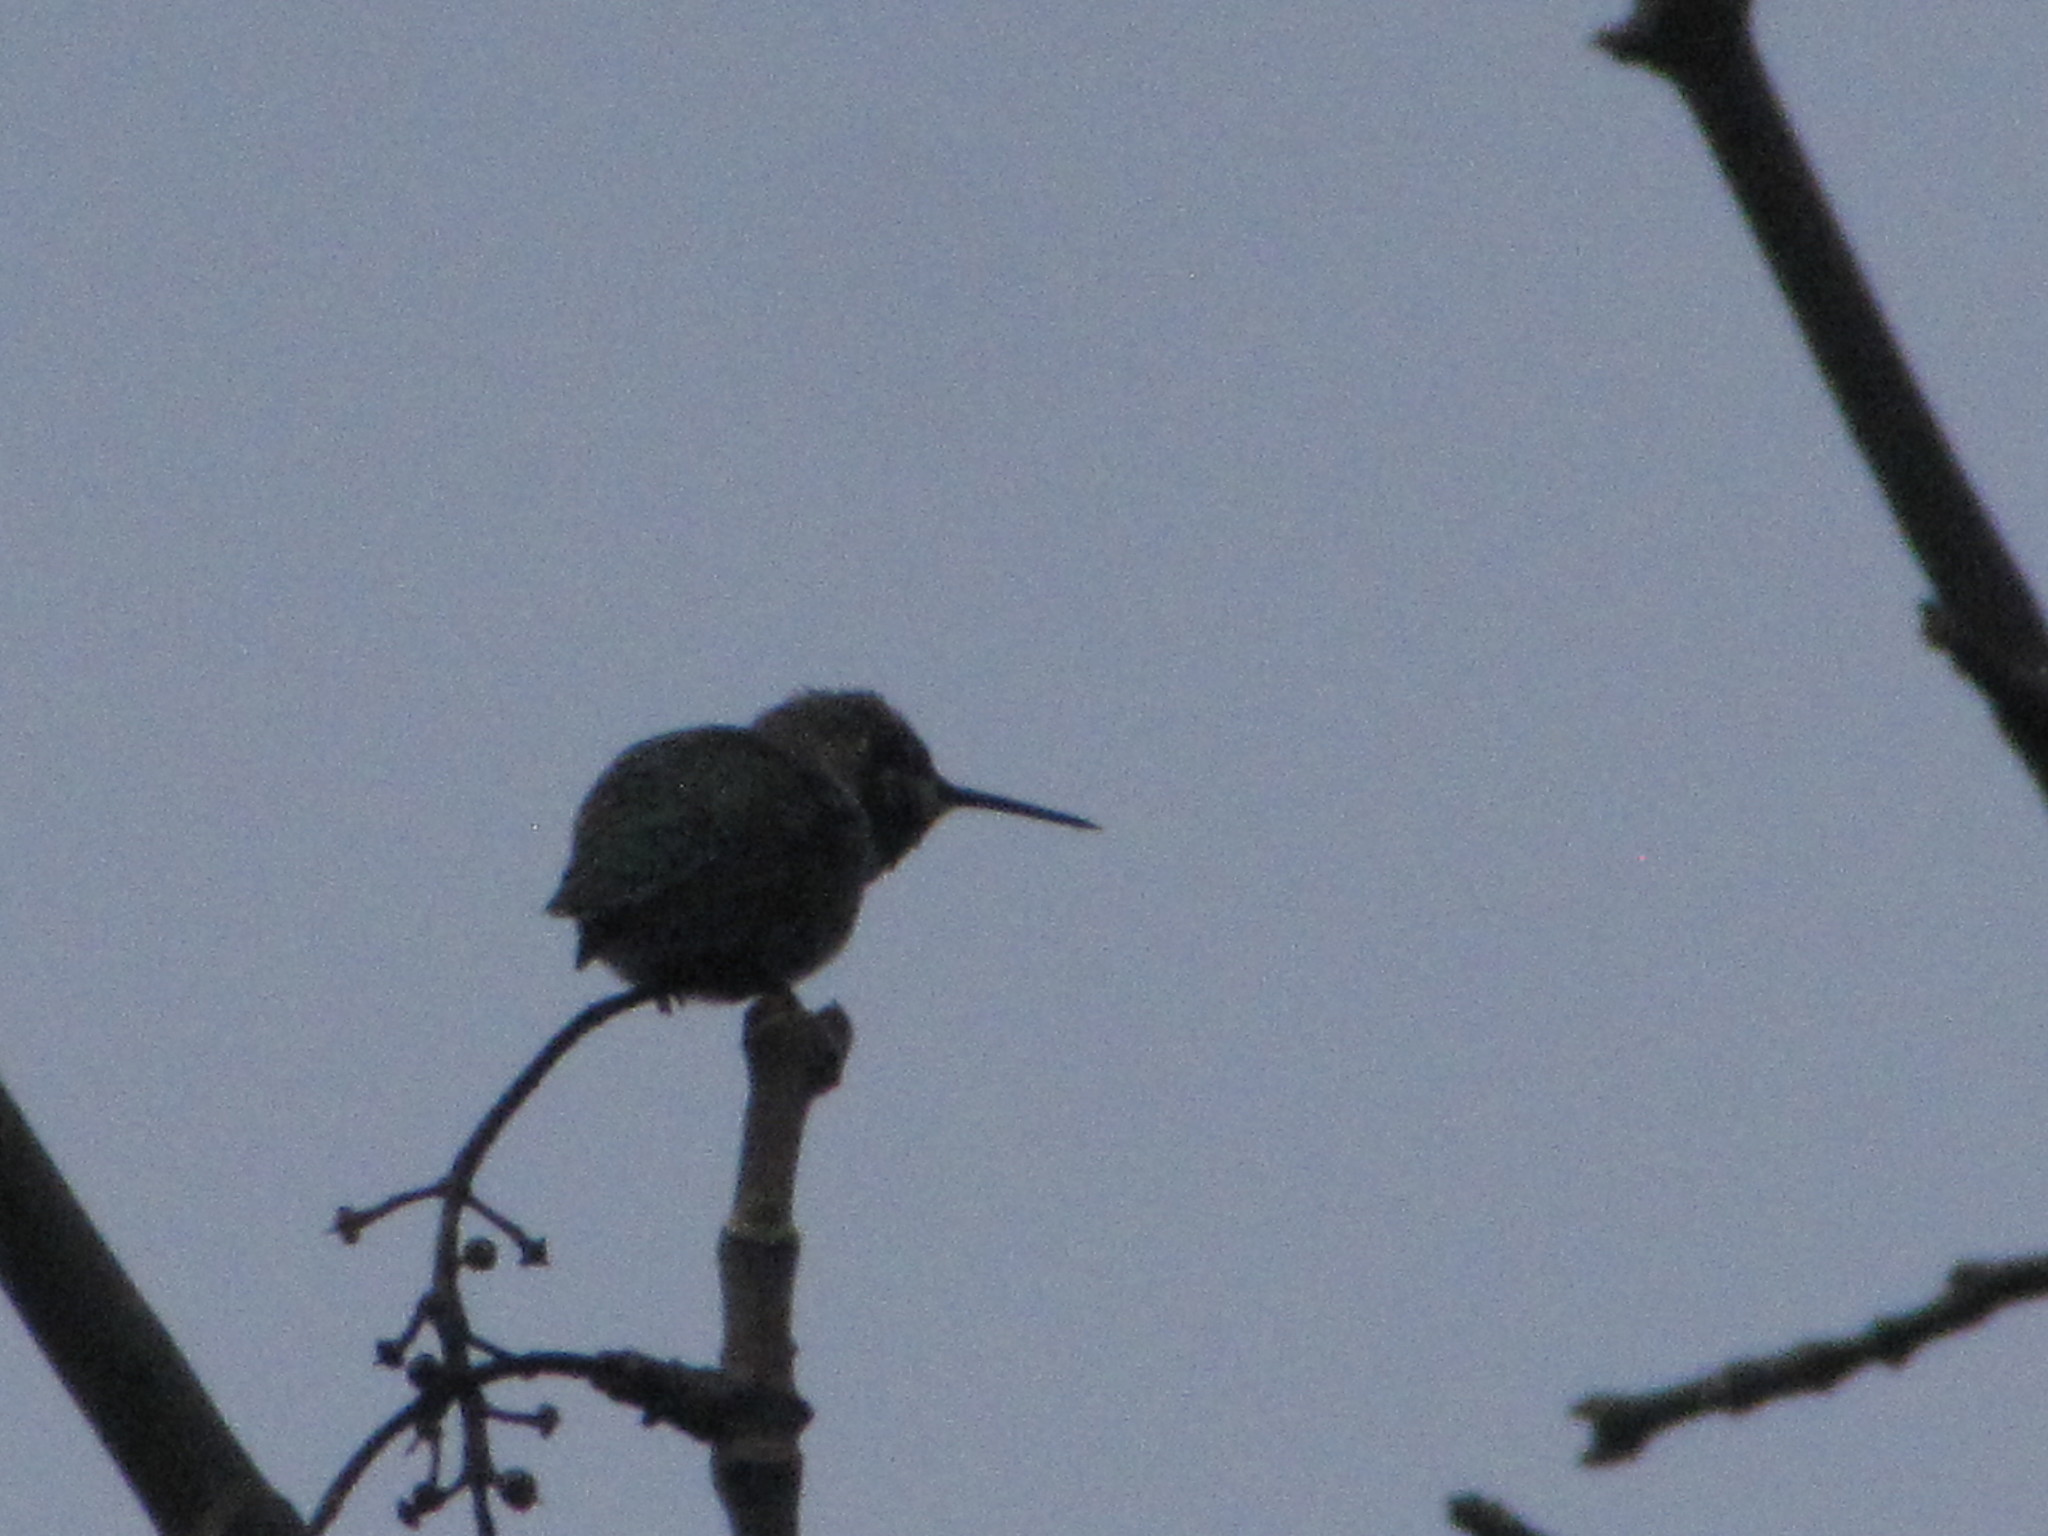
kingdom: Animalia
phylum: Chordata
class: Aves
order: Apodiformes
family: Trochilidae
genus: Calypte
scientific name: Calypte anna
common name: Anna's hummingbird
